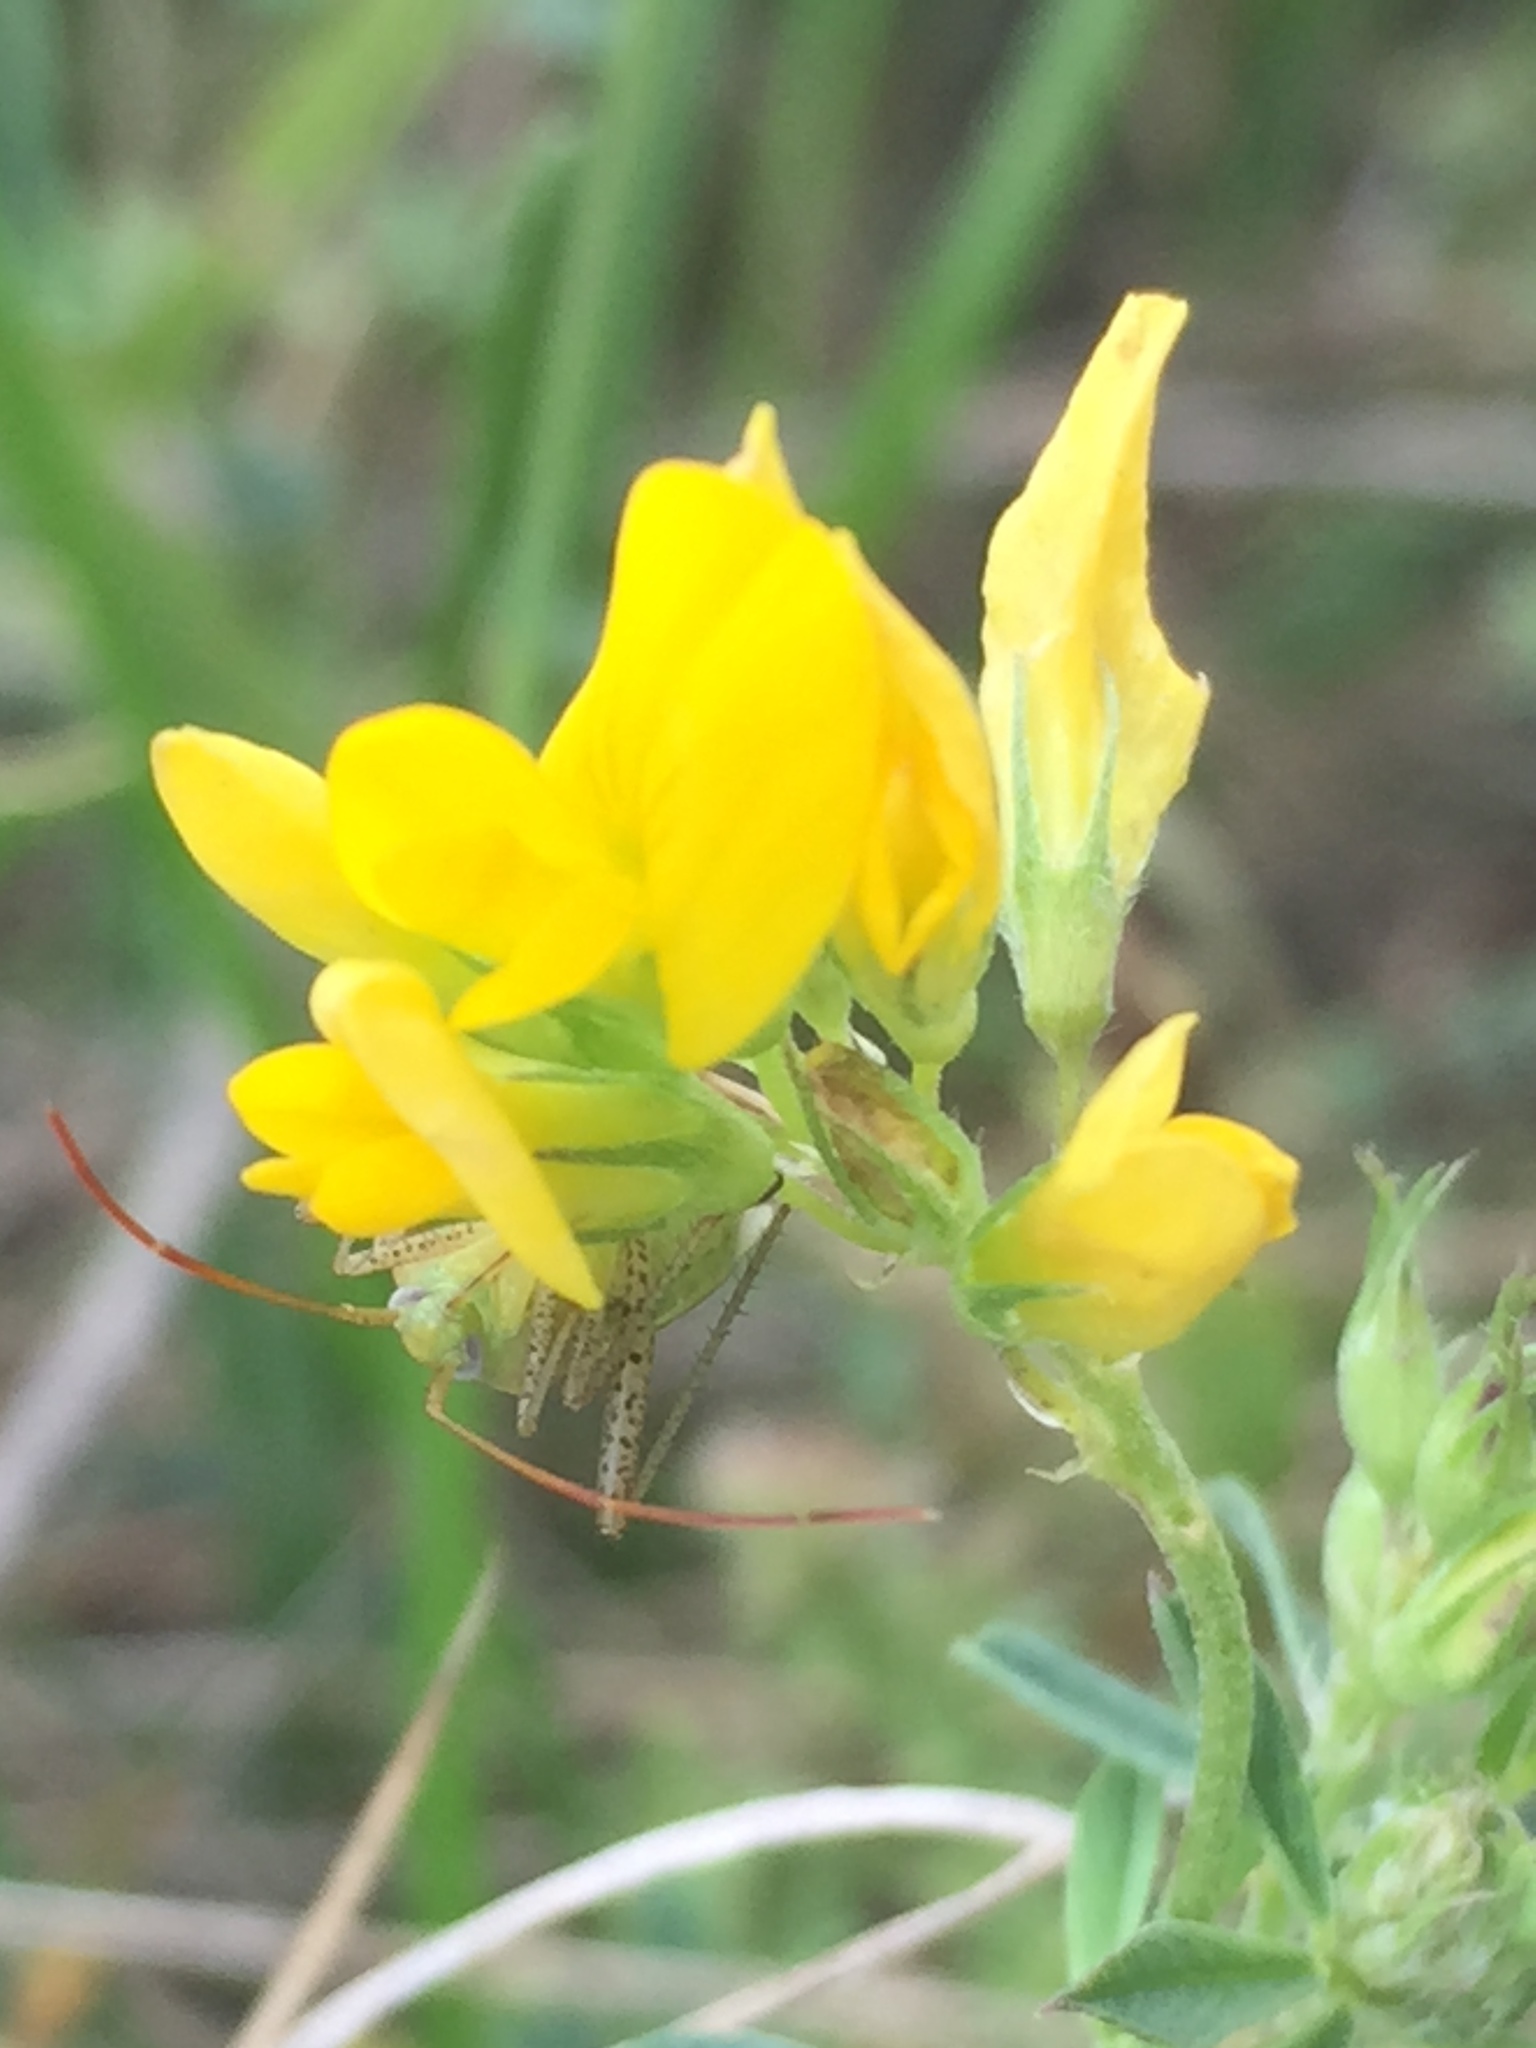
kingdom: Plantae
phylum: Tracheophyta
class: Magnoliopsida
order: Fabales
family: Fabaceae
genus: Medicago
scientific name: Medicago falcata
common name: Sickle medick
